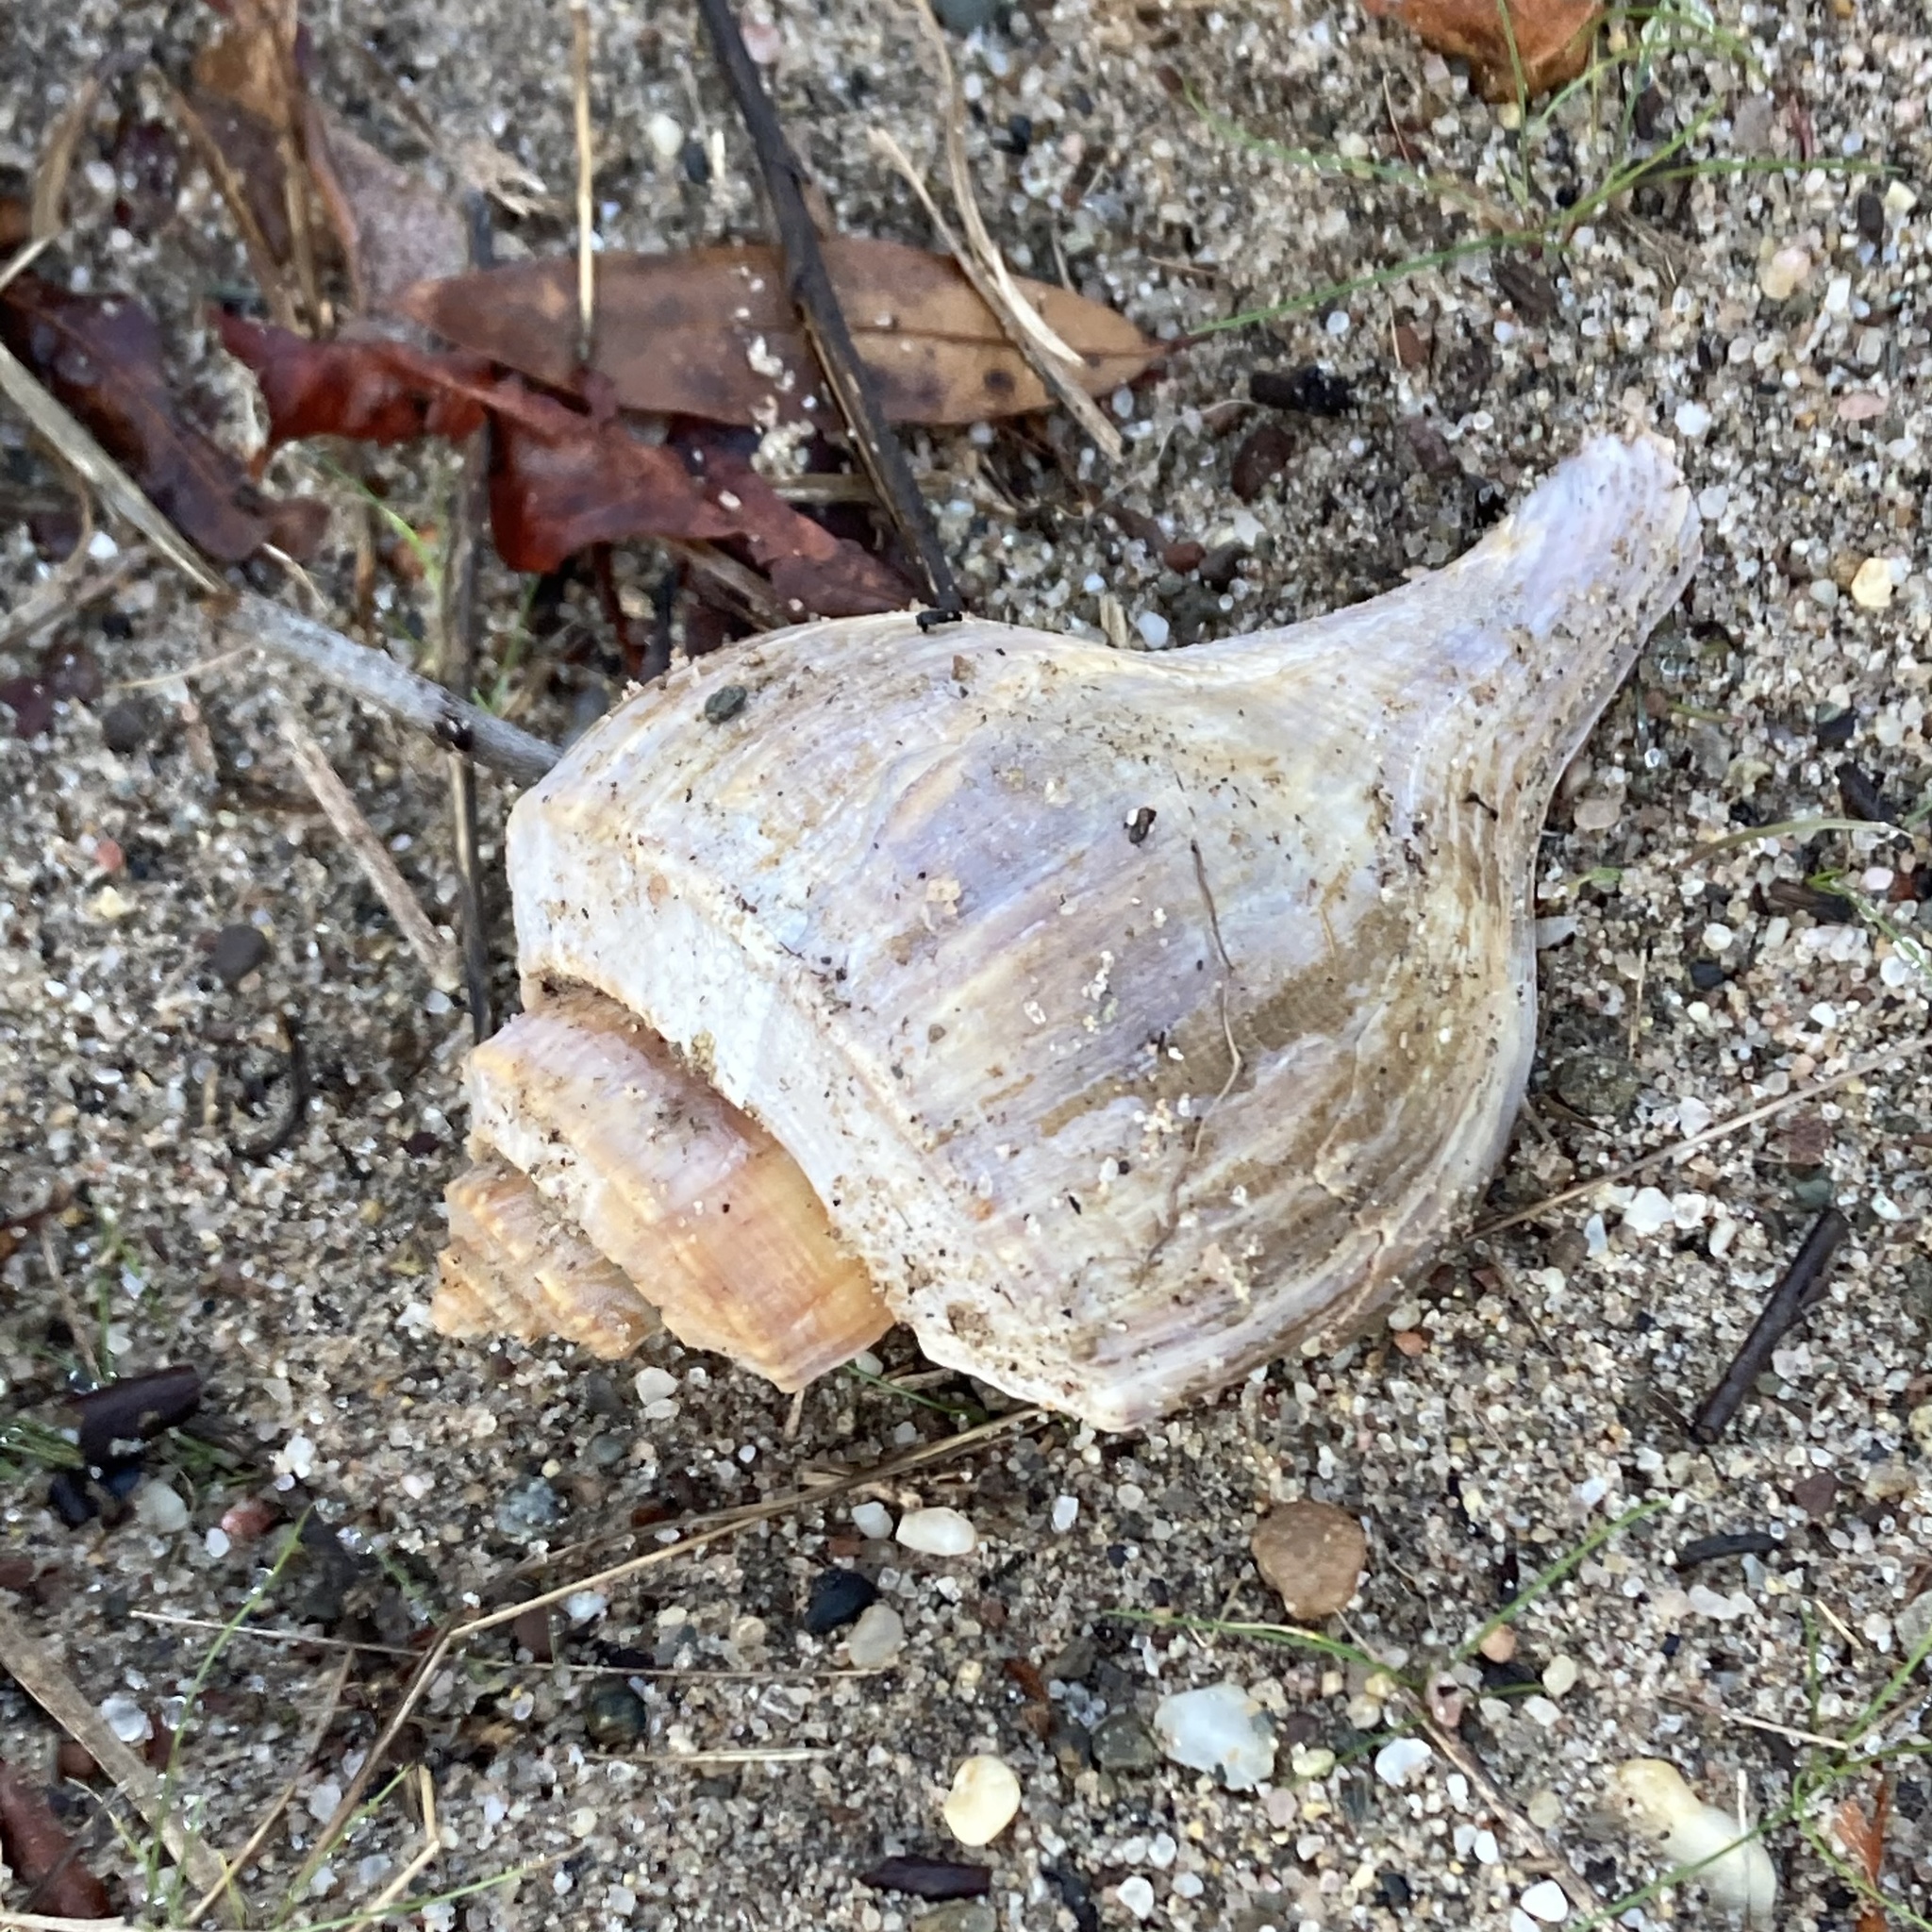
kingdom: Animalia
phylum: Mollusca
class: Gastropoda
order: Neogastropoda
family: Busyconidae
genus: Busycotypus
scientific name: Busycotypus canaliculatus
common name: Channeled whelk
